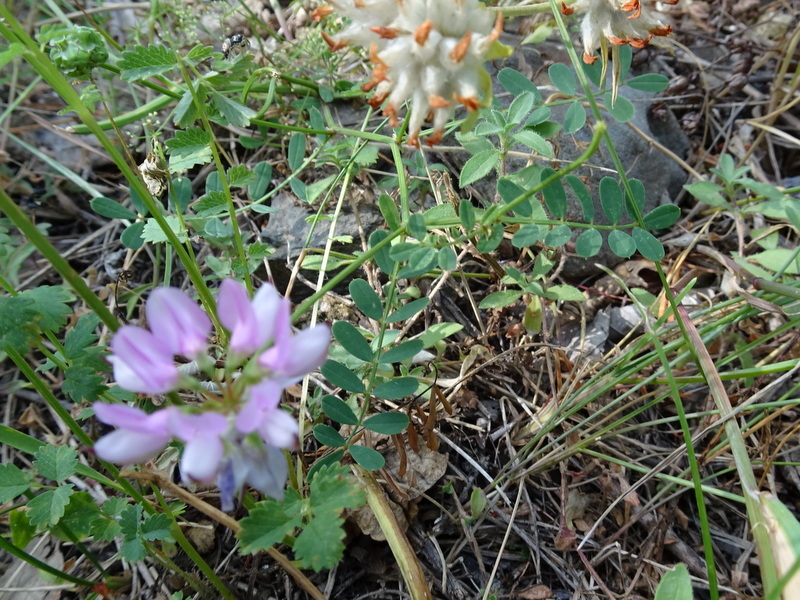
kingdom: Plantae
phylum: Tracheophyta
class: Magnoliopsida
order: Fabales
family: Fabaceae
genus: Coronilla
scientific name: Coronilla varia
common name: Crownvetch
